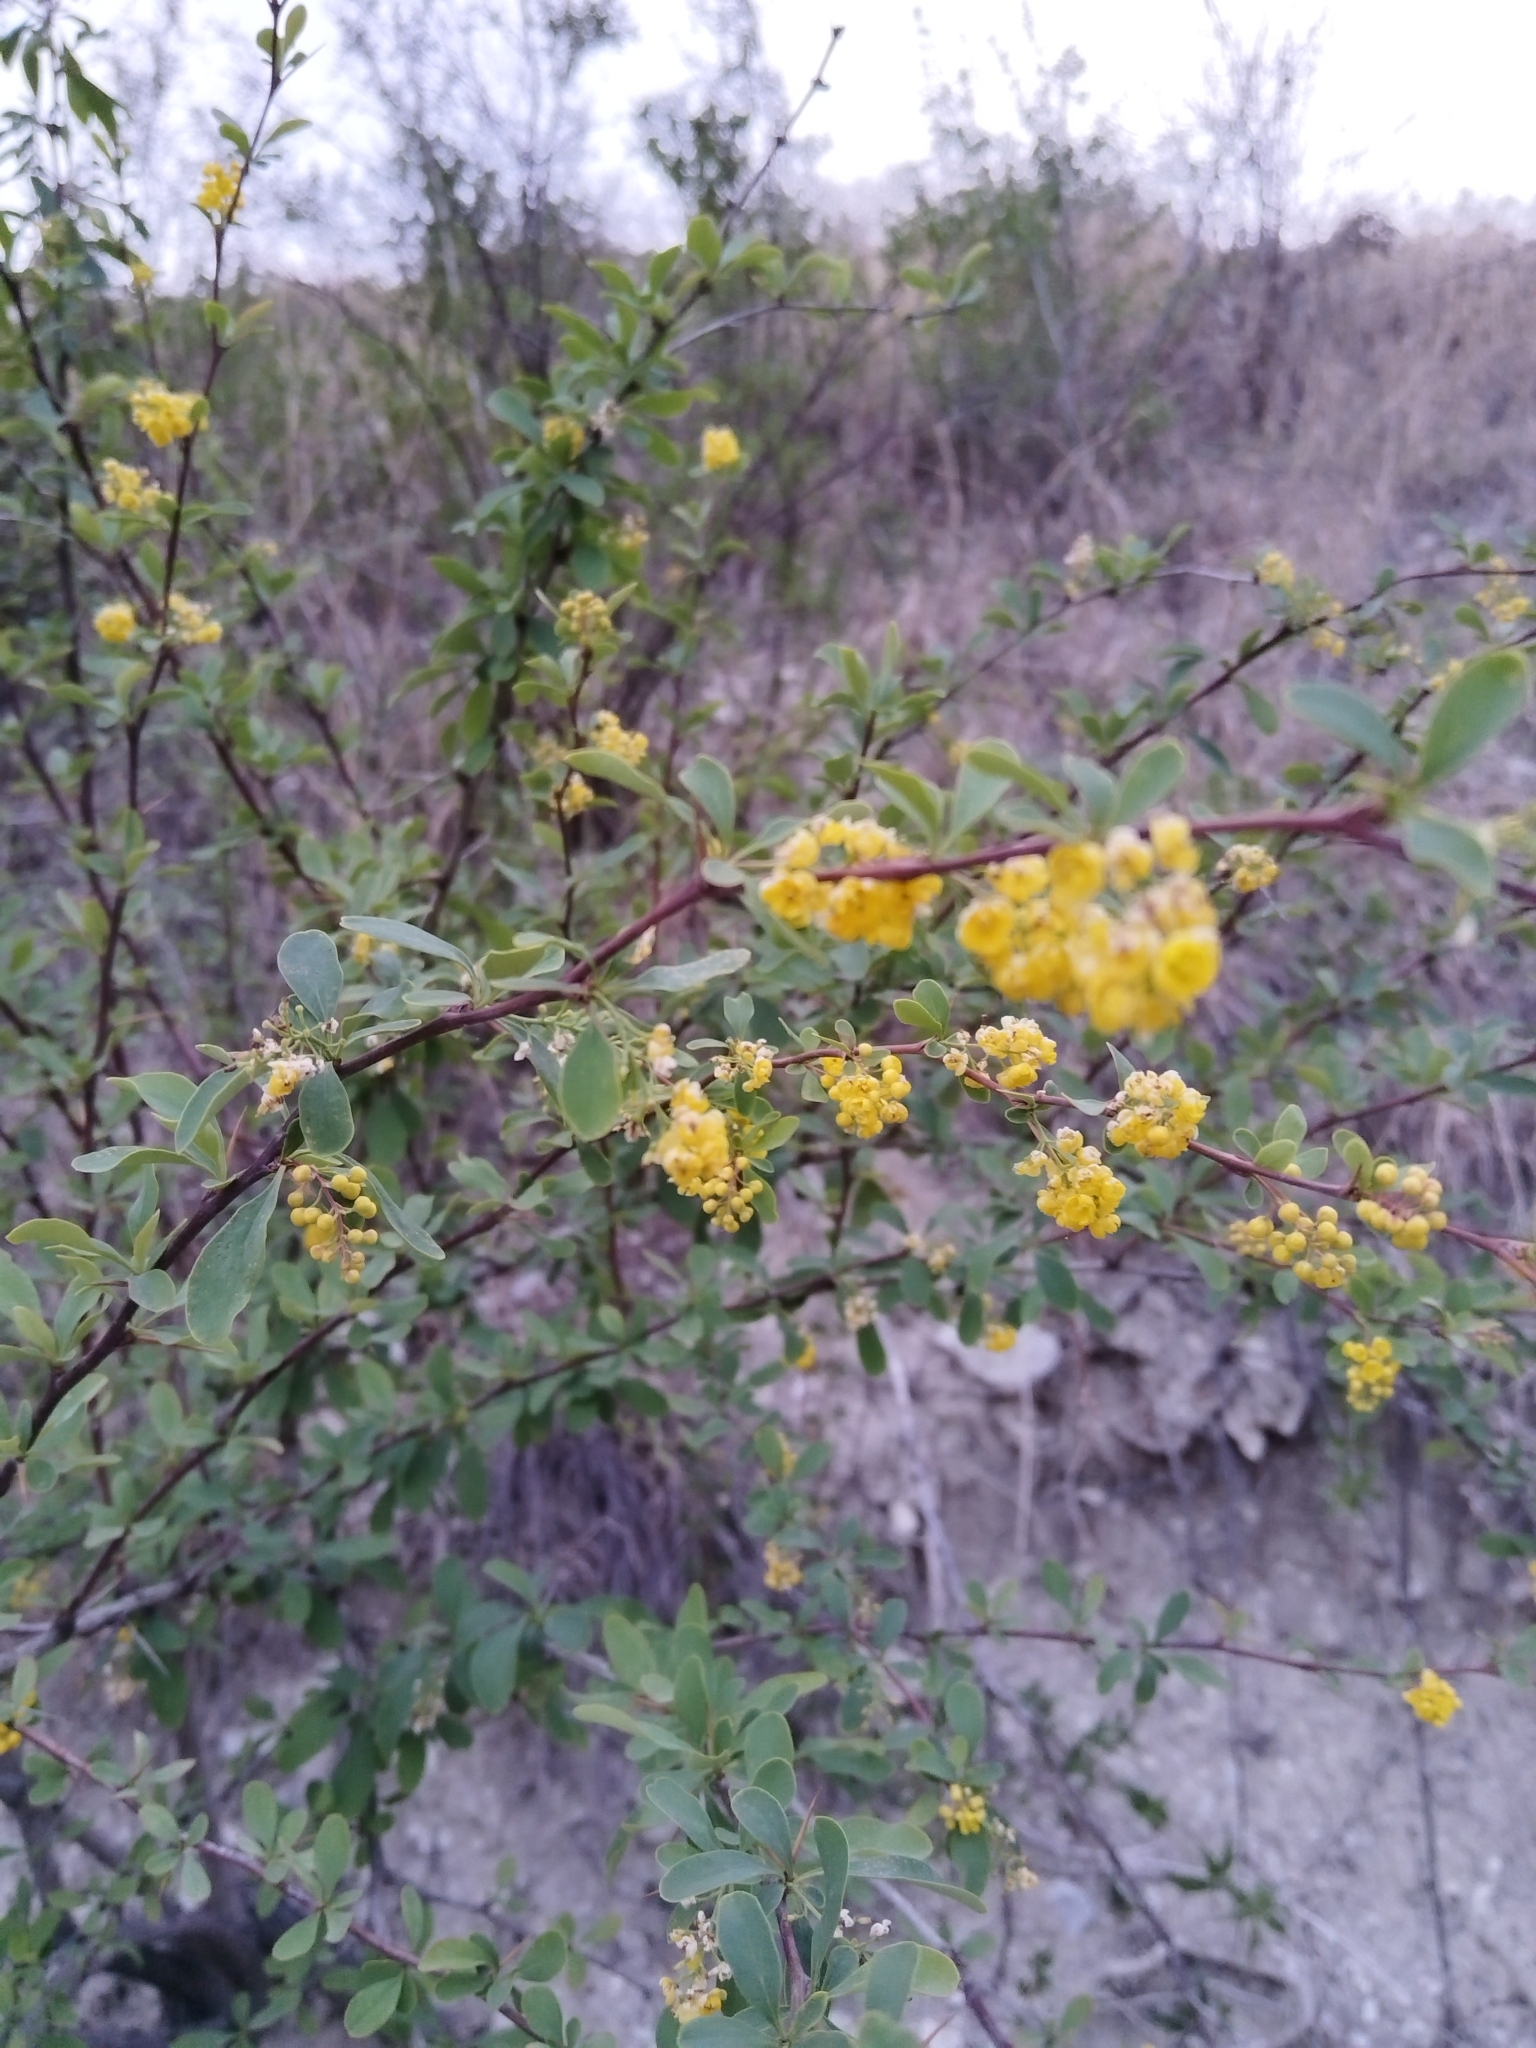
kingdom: Plantae
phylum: Tracheophyta
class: Magnoliopsida
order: Ranunculales
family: Berberidaceae
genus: Berberis
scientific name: Berberis vulgaris
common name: Barberry
